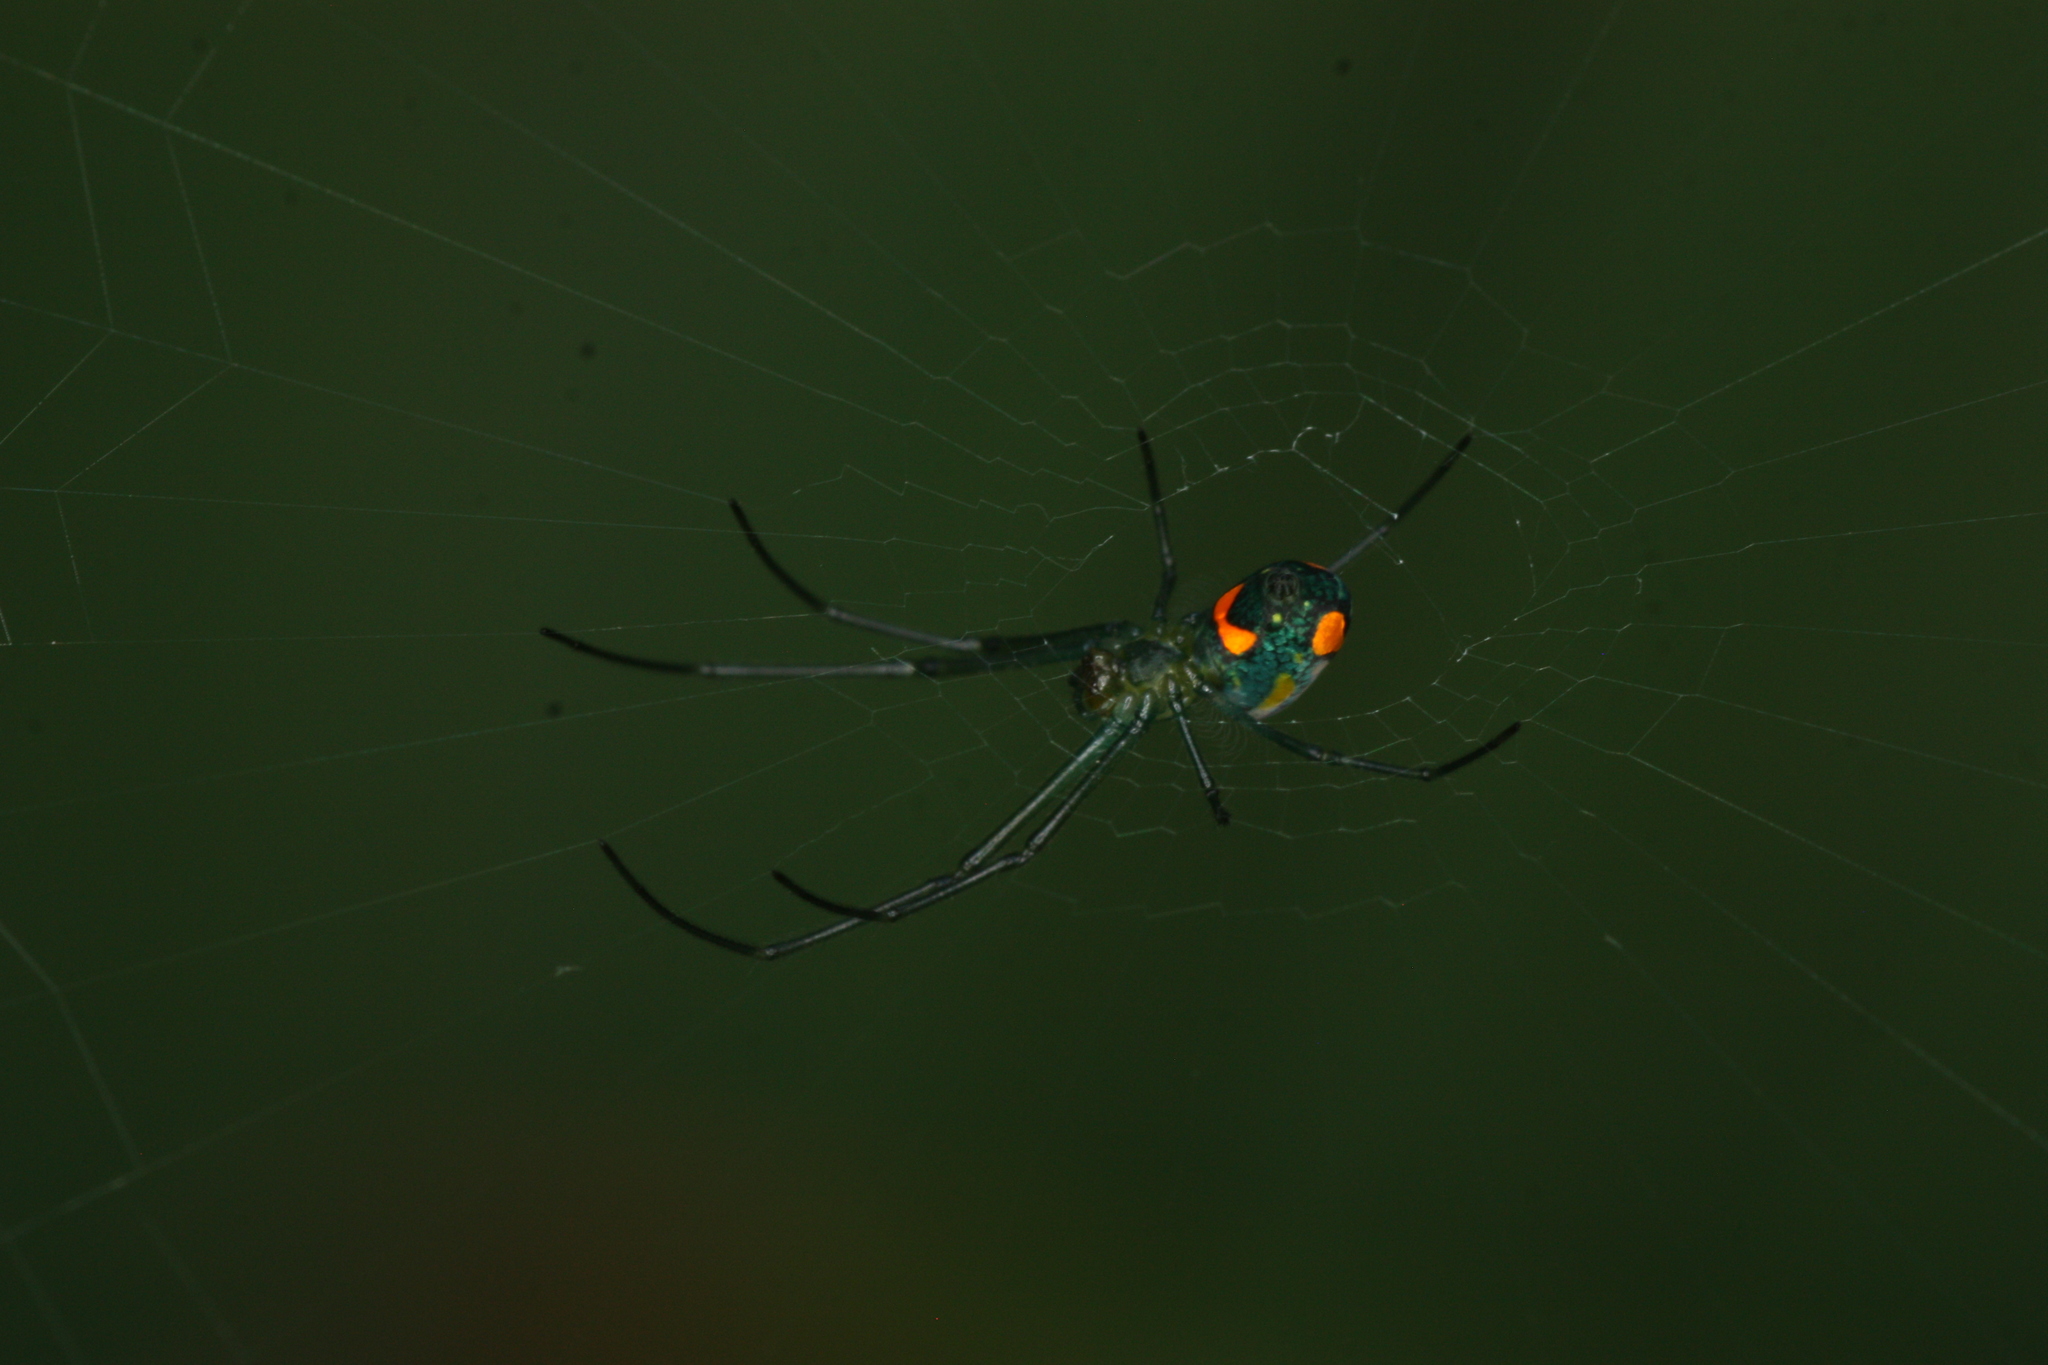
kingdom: Animalia
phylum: Arthropoda
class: Arachnida
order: Araneae
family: Tetragnathidae
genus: Leucauge
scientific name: Leucauge argyrobapta
